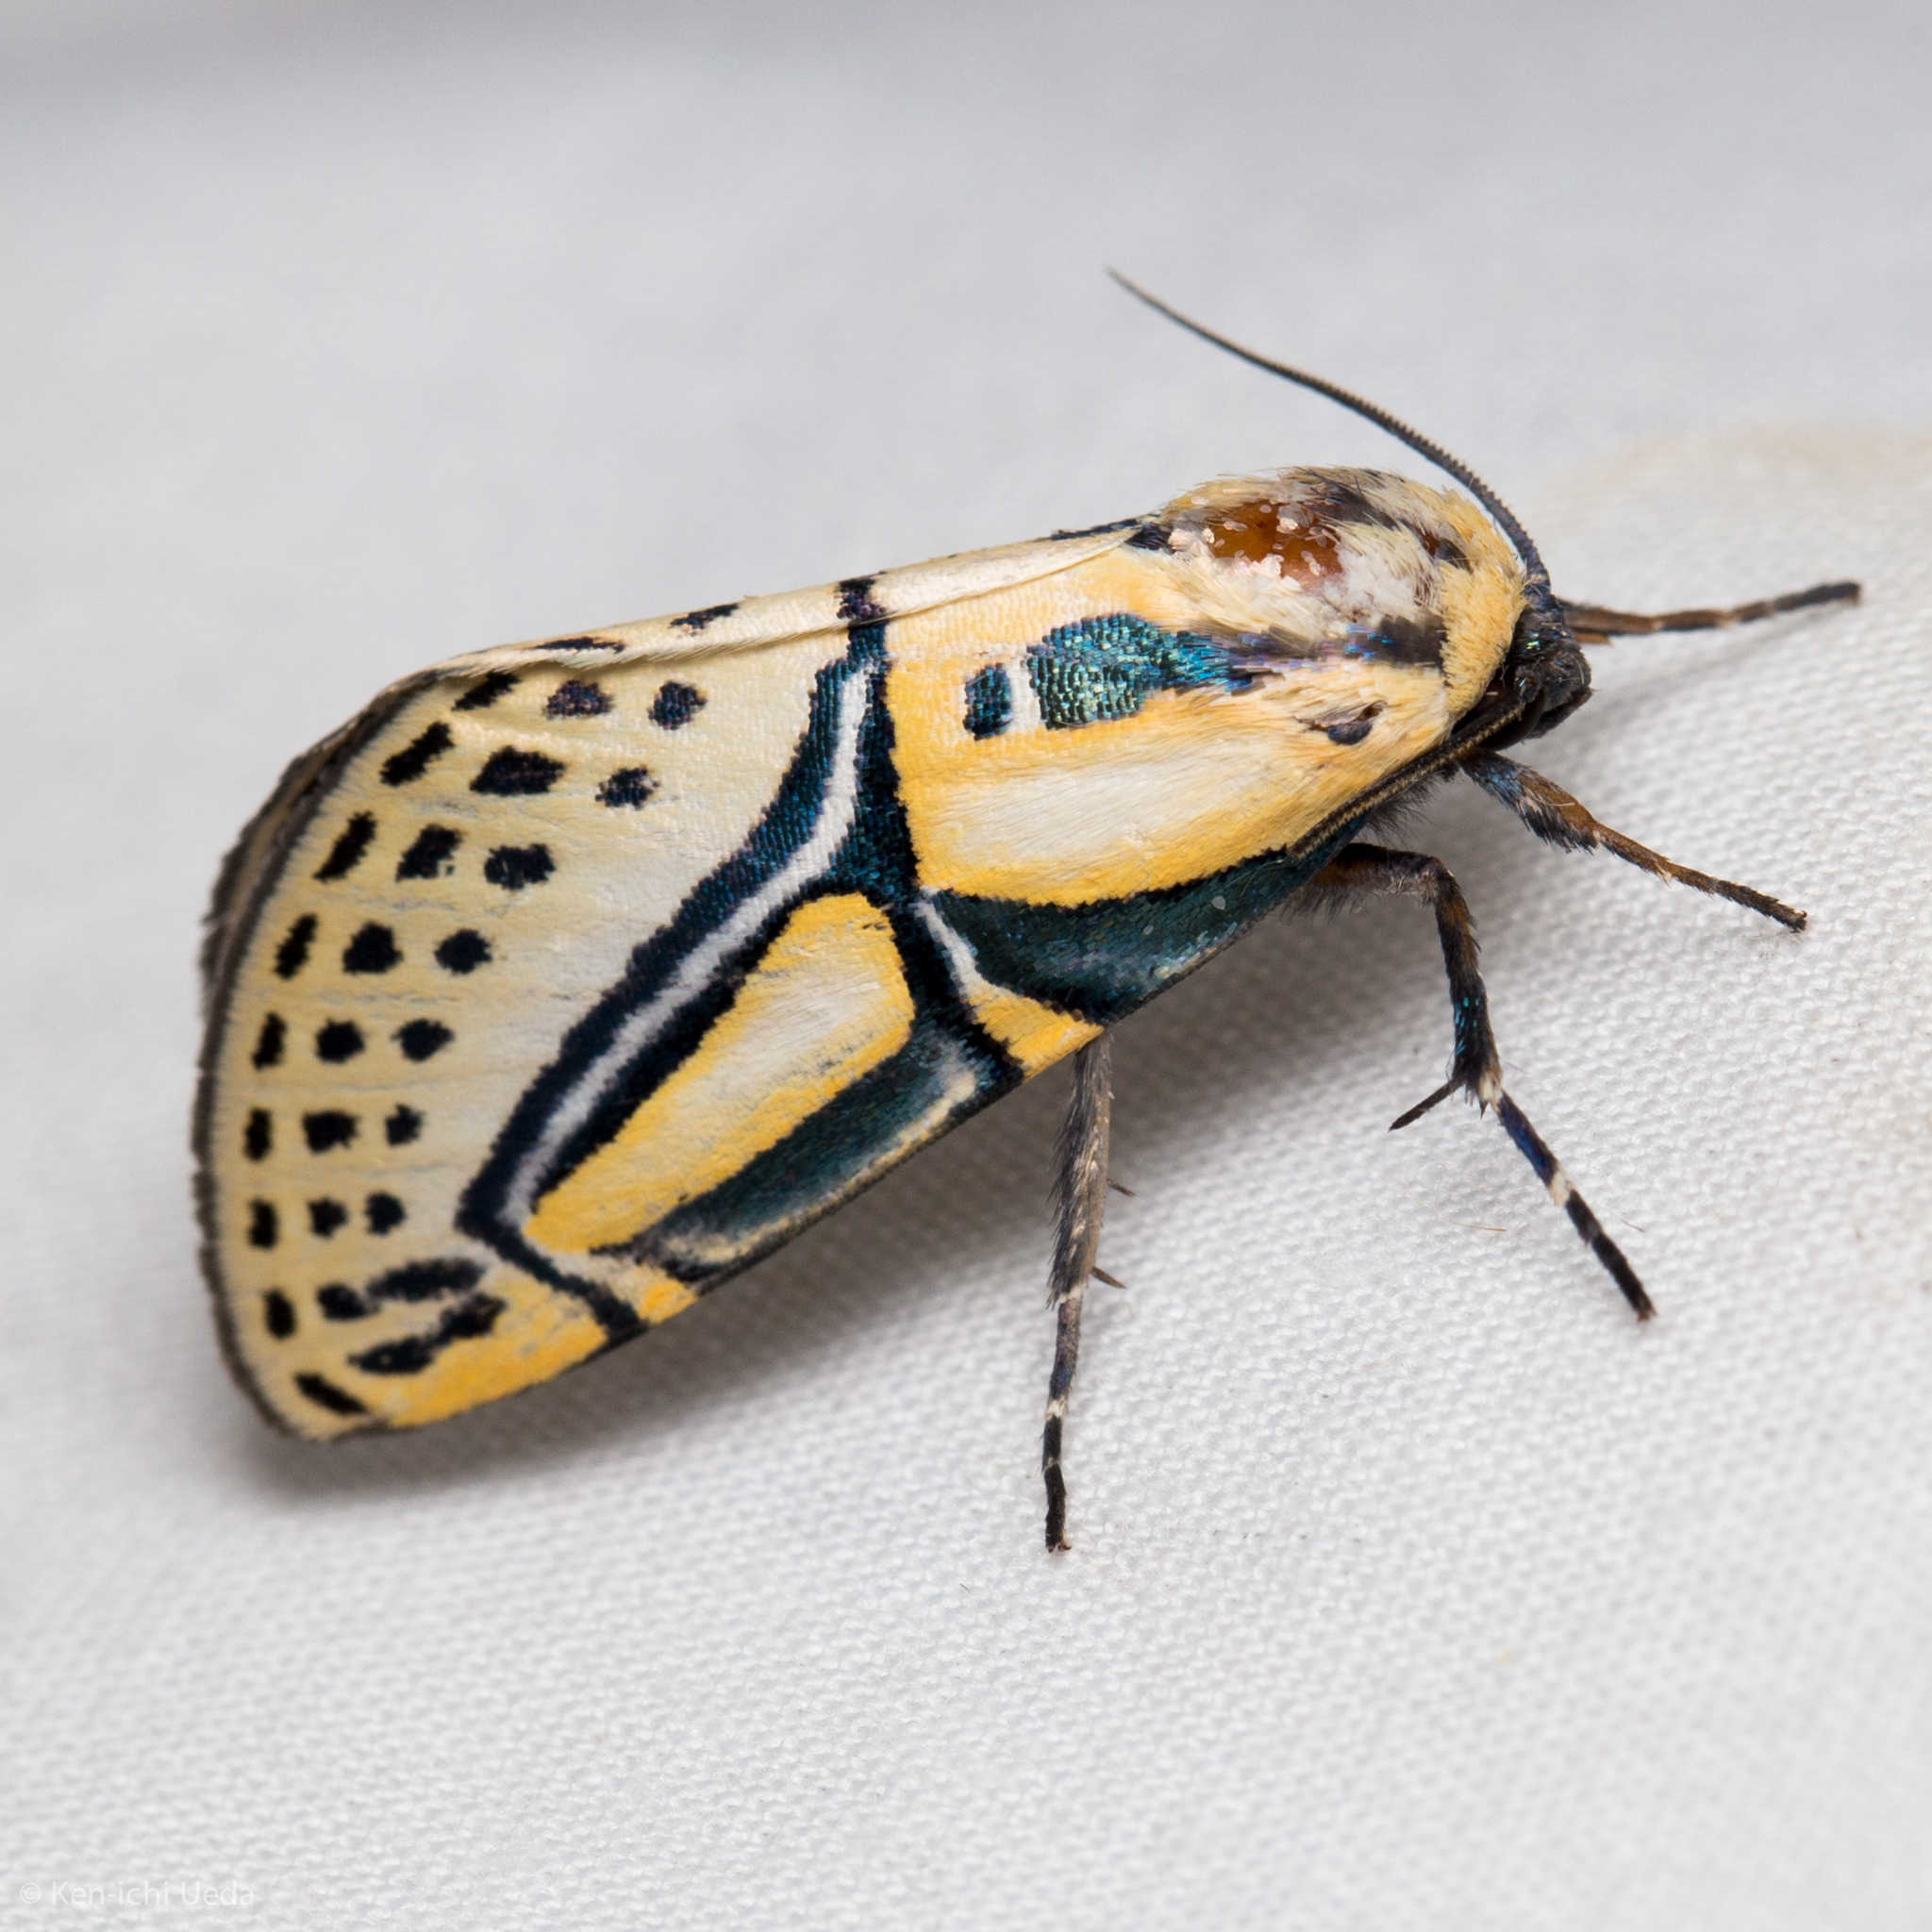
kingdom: Animalia
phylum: Arthropoda
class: Insecta
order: Lepidoptera
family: Erebidae
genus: Diphthera
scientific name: Diphthera festiva
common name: Hieroglyphic moth
